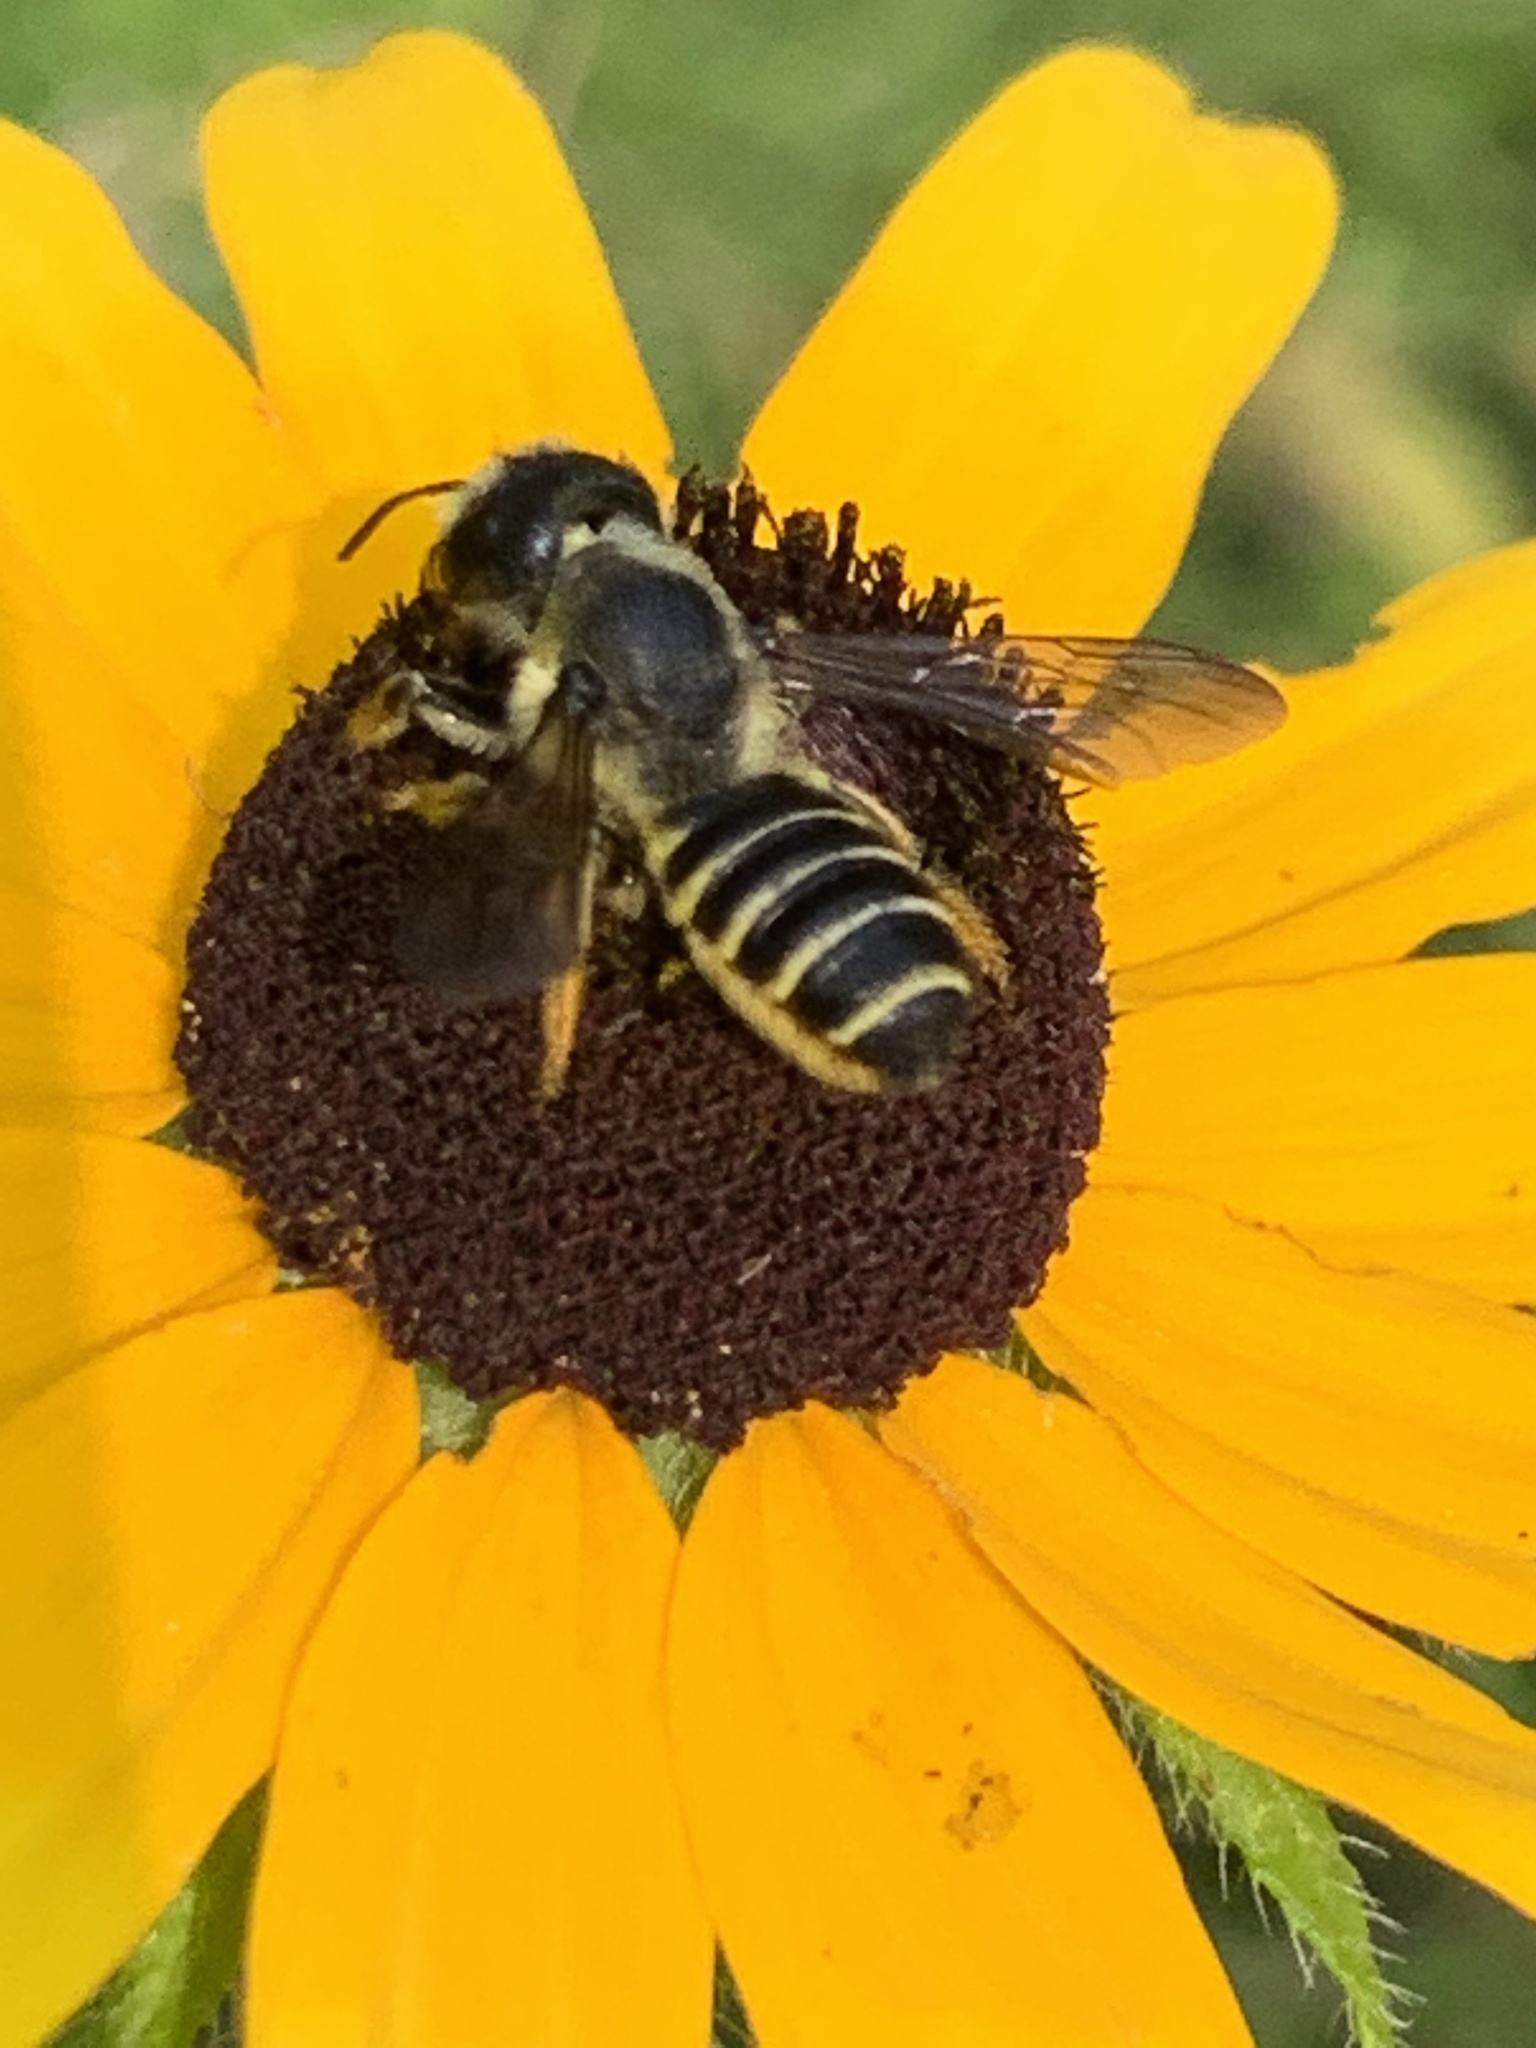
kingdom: Animalia
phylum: Arthropoda
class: Insecta
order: Hymenoptera
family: Megachilidae
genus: Megachile
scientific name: Megachile pugnata
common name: Pugnacious leafcutter bee
